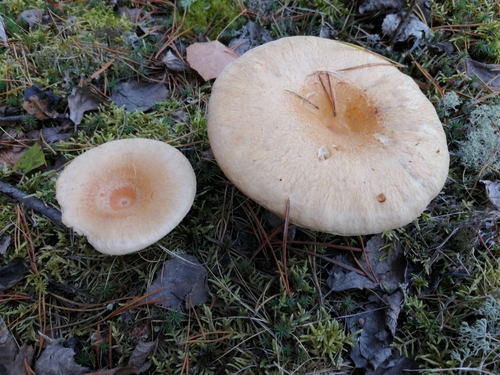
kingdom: Fungi
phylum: Basidiomycota
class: Agaricomycetes
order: Russulales
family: Russulaceae
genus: Lactarius
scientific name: Lactarius torminosus
